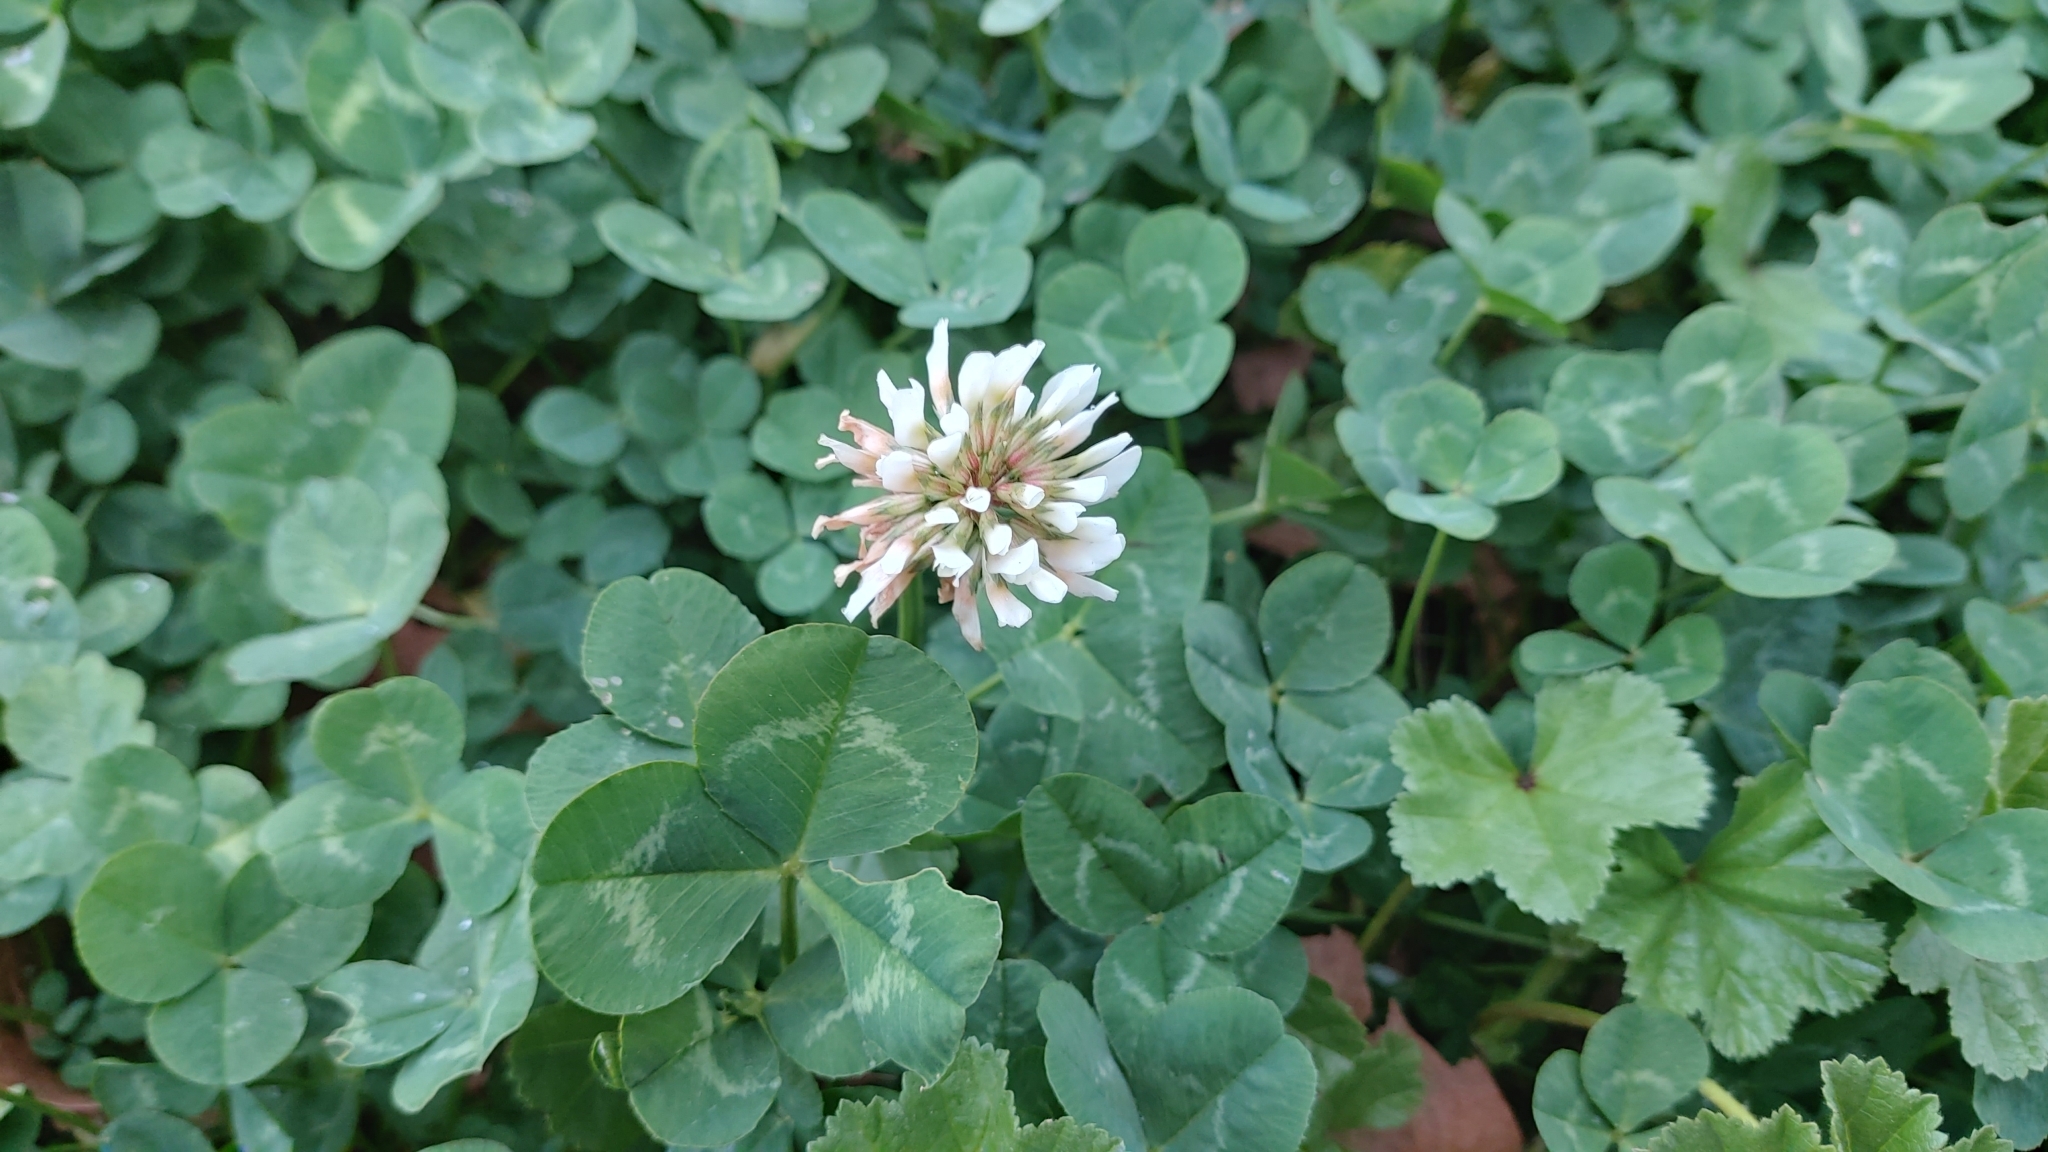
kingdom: Plantae
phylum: Tracheophyta
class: Magnoliopsida
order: Fabales
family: Fabaceae
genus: Trifolium
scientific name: Trifolium repens
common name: White clover
